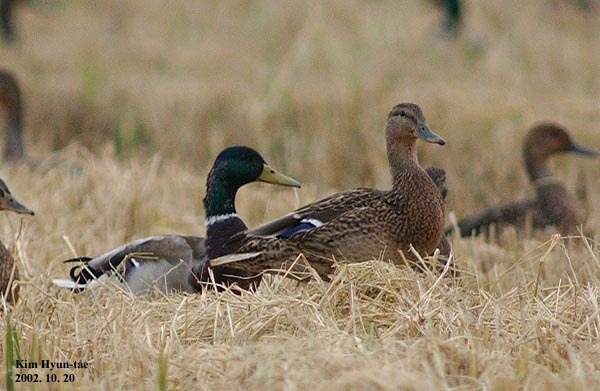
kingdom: Animalia
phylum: Chordata
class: Aves
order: Anseriformes
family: Anatidae
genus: Anas
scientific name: Anas platyrhynchos
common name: Mallard
